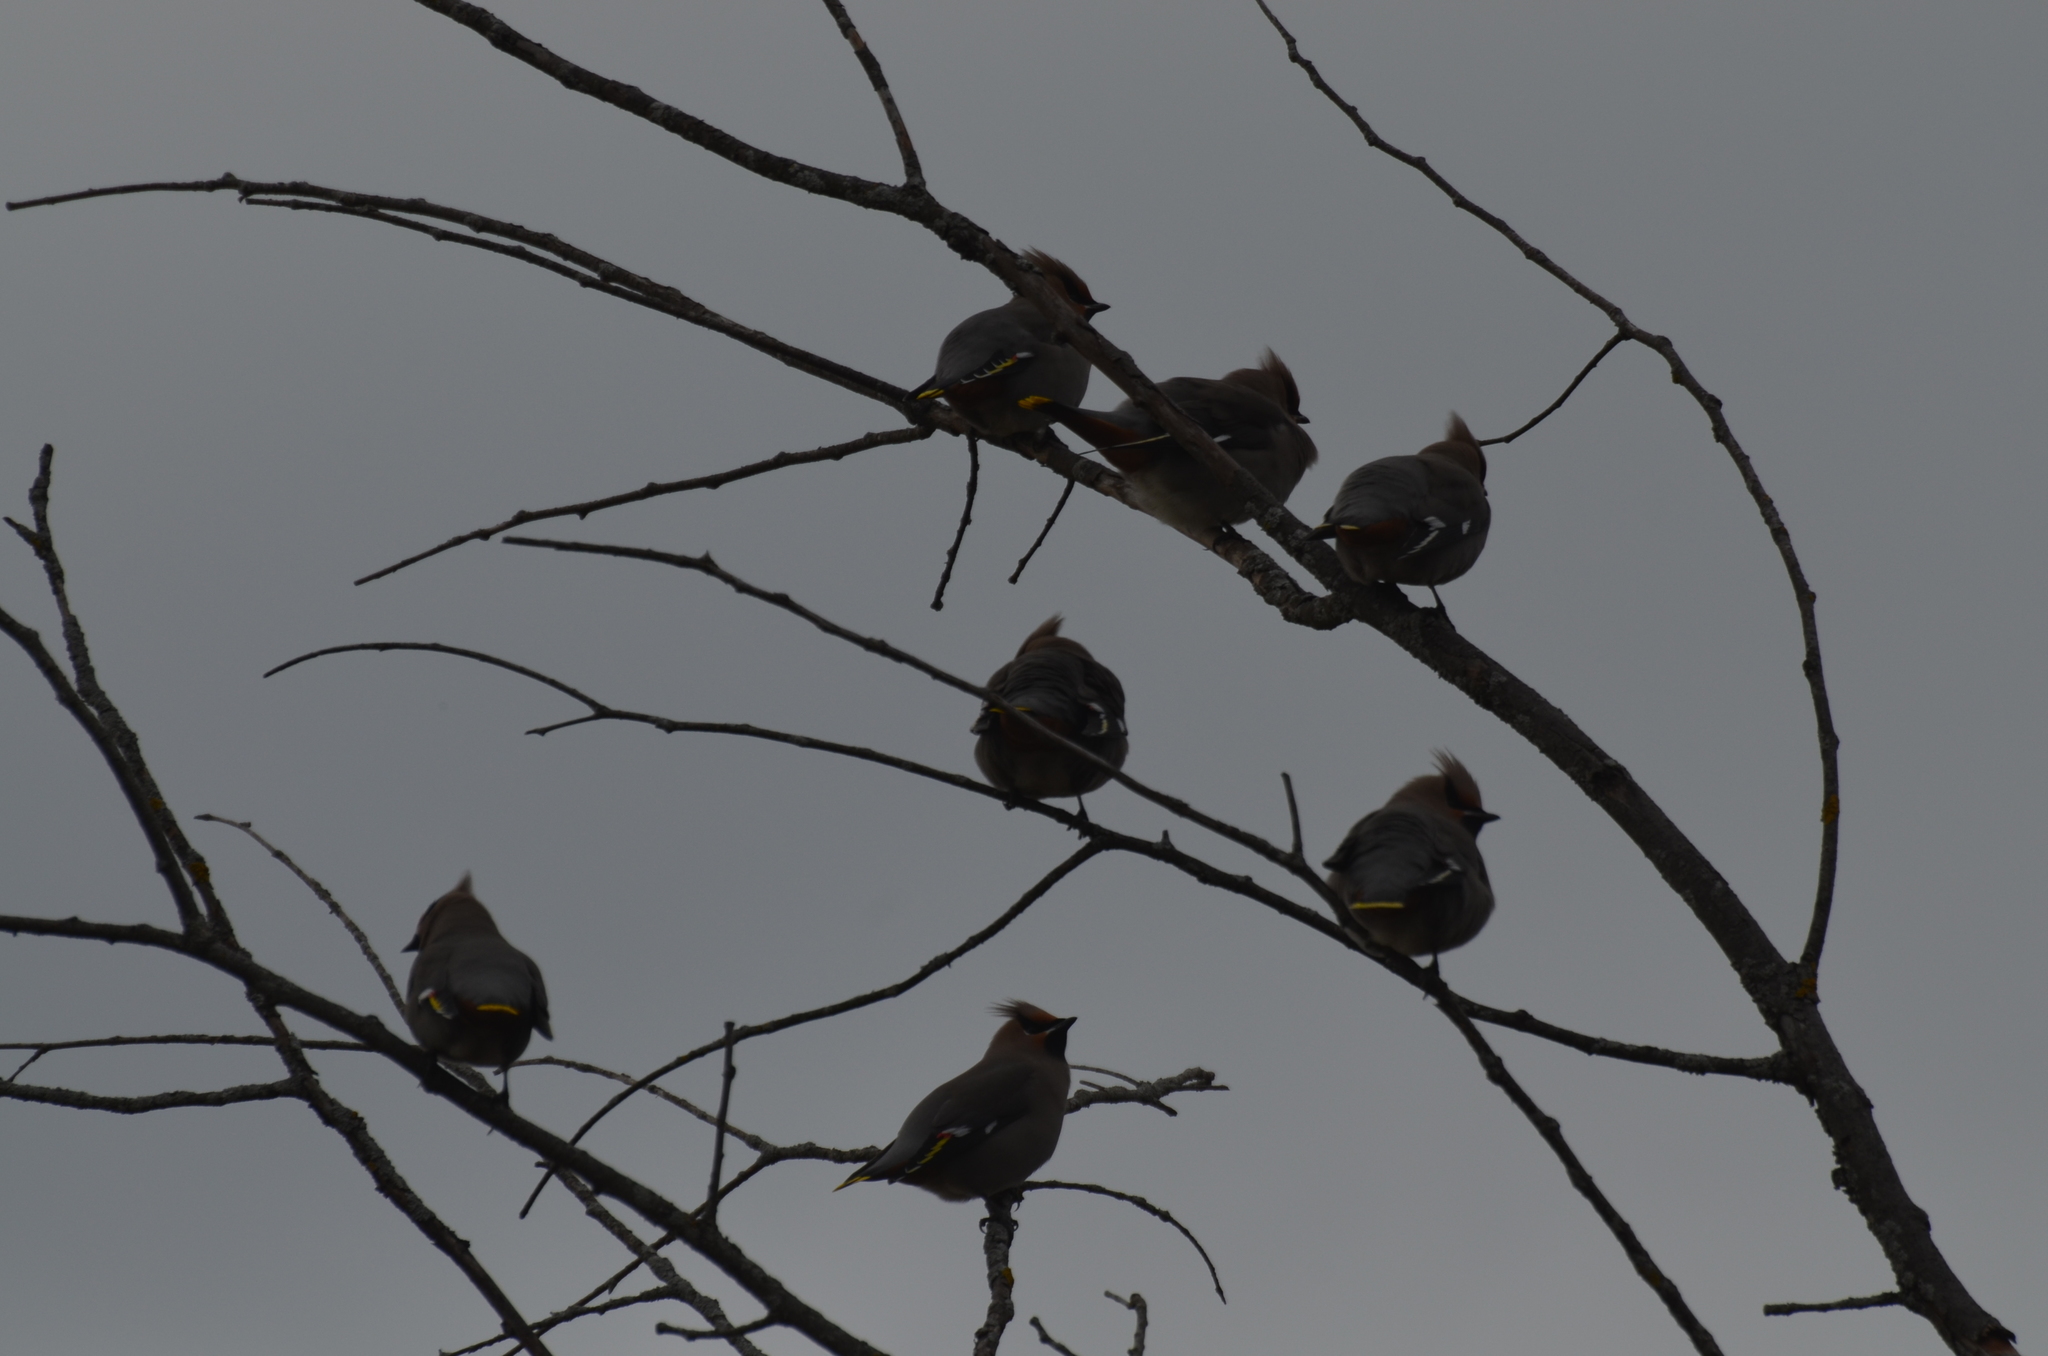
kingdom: Animalia
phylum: Chordata
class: Aves
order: Passeriformes
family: Bombycillidae
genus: Bombycilla
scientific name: Bombycilla garrulus
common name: Bohemian waxwing
